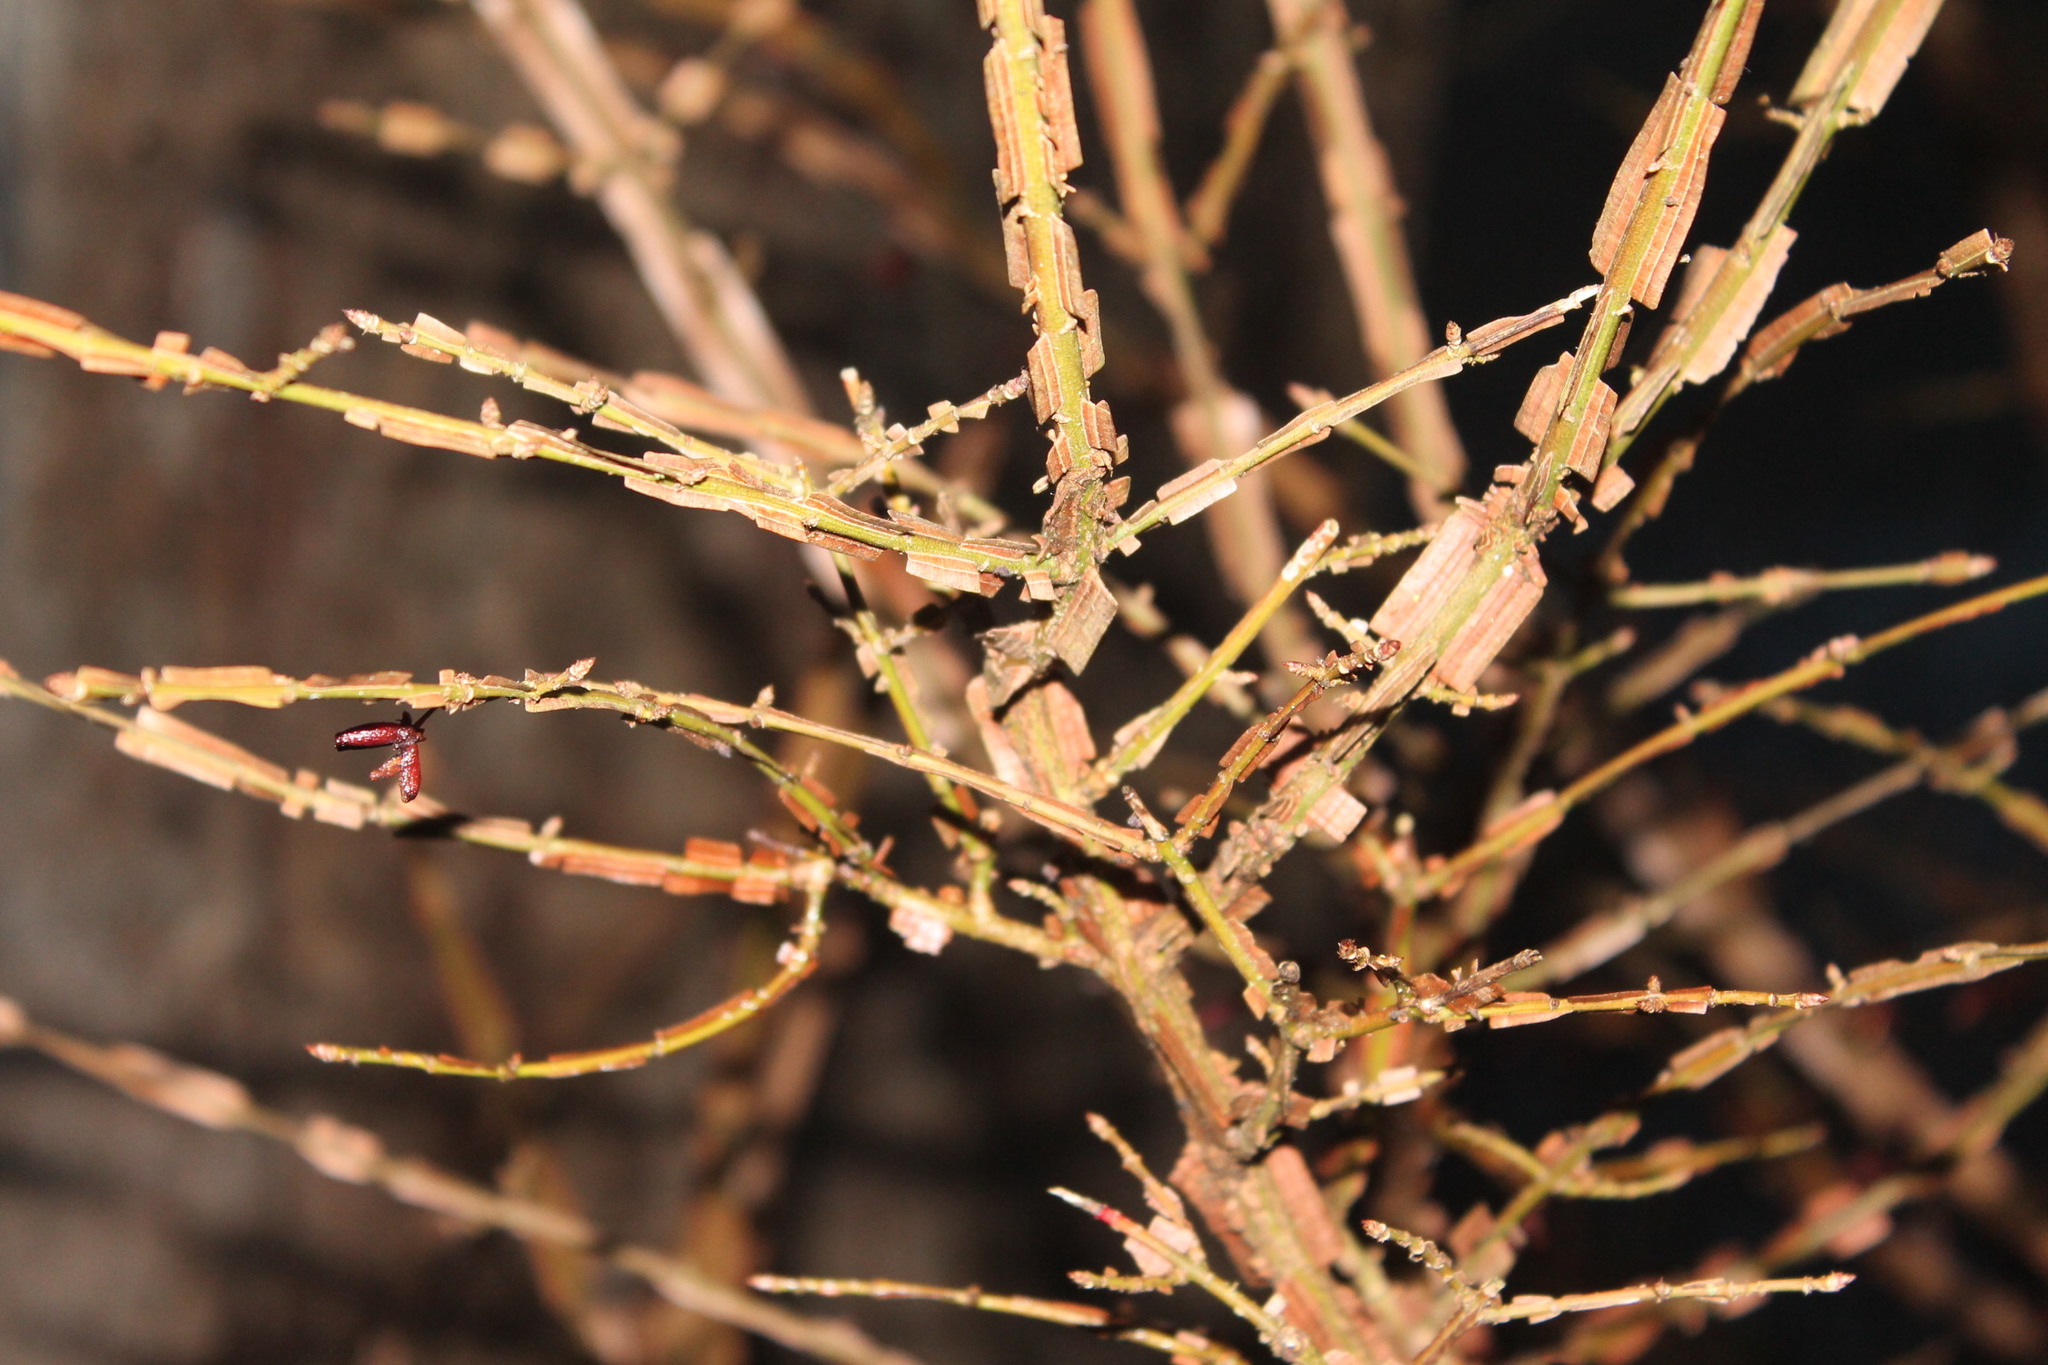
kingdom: Plantae
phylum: Tracheophyta
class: Magnoliopsida
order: Celastrales
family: Celastraceae
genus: Euonymus
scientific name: Euonymus alatus
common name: Winged euonymus
